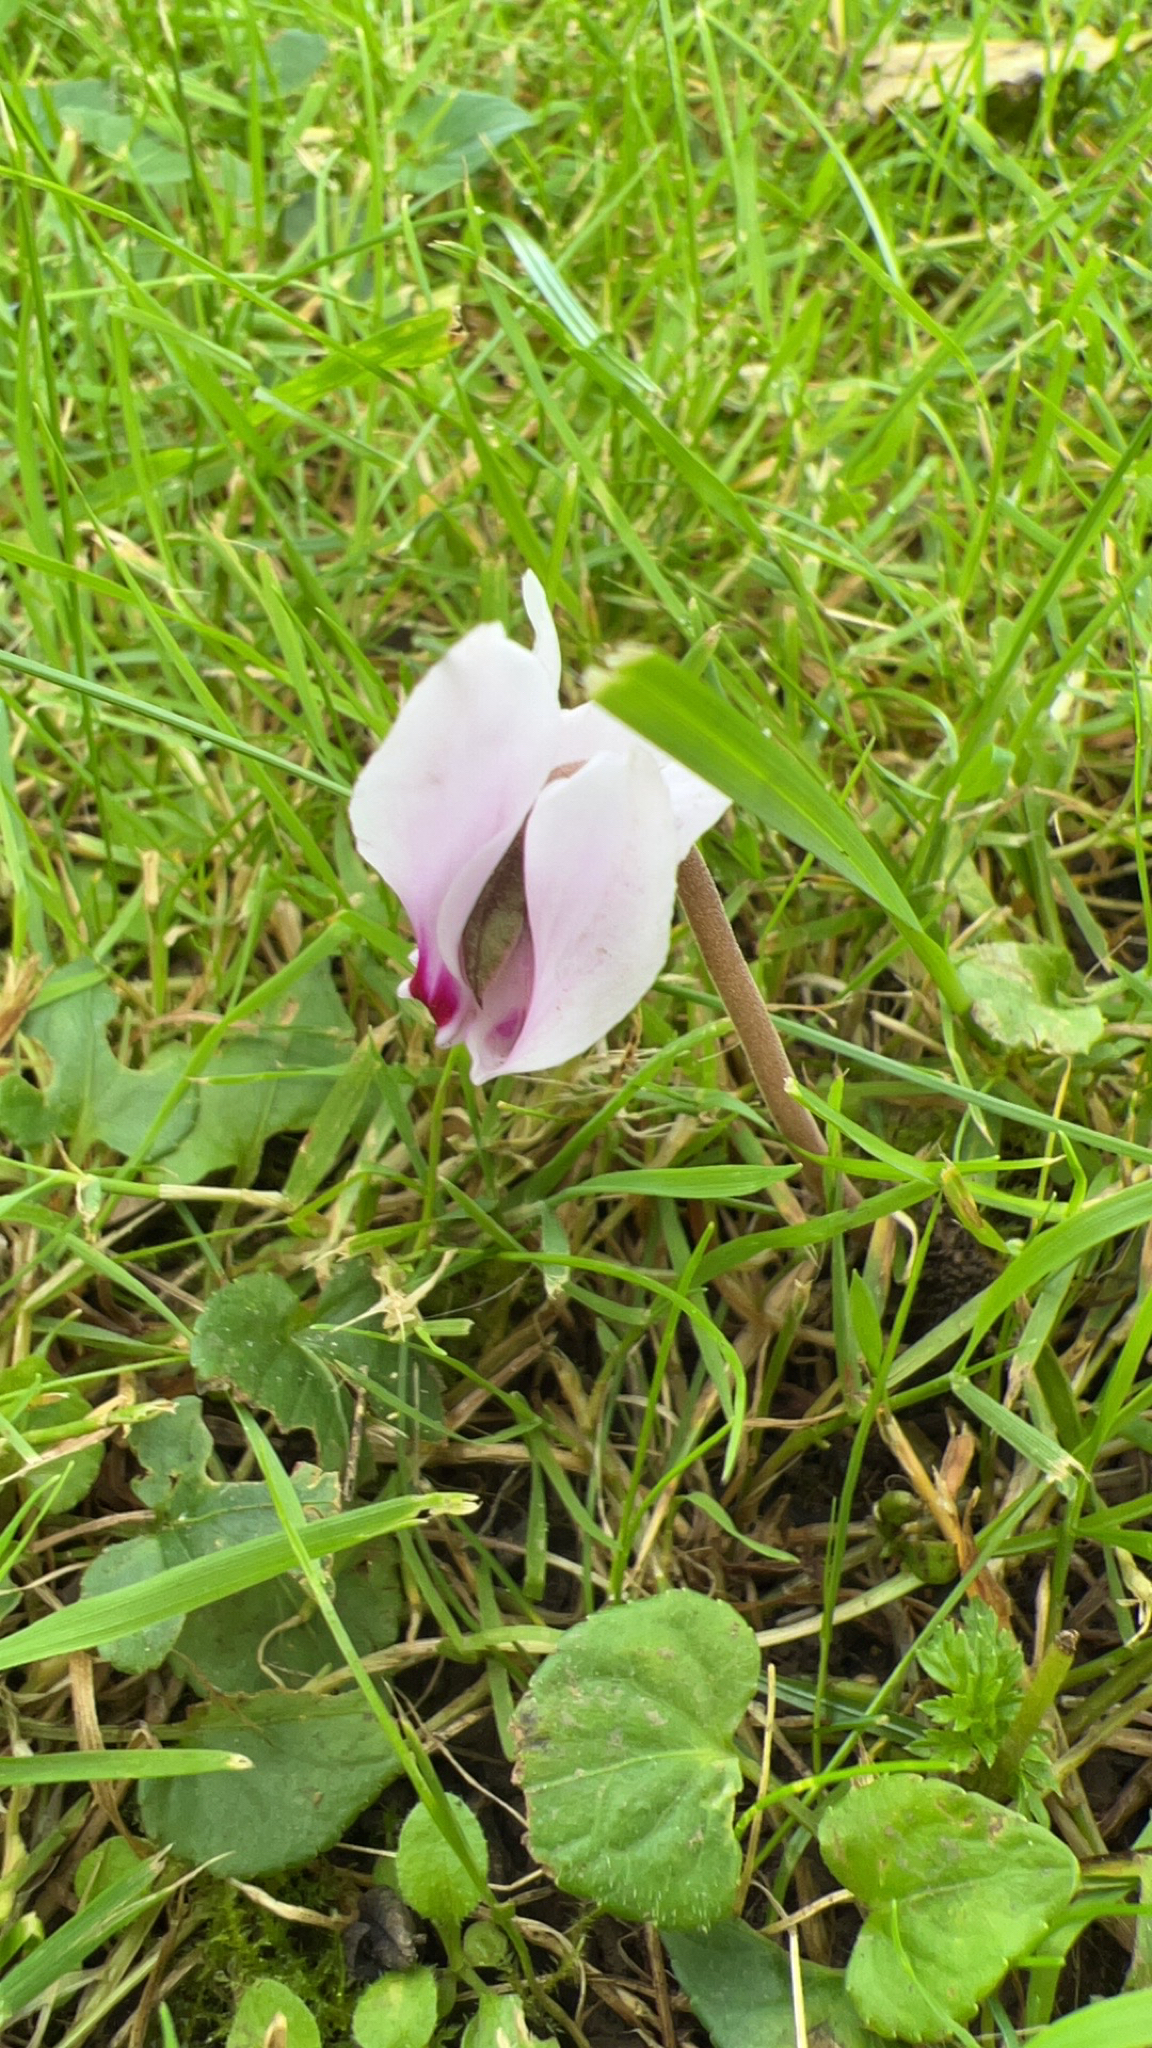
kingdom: Plantae
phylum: Tracheophyta
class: Magnoliopsida
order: Ericales
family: Primulaceae
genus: Cyclamen
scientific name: Cyclamen hederifolium
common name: Sowbread
